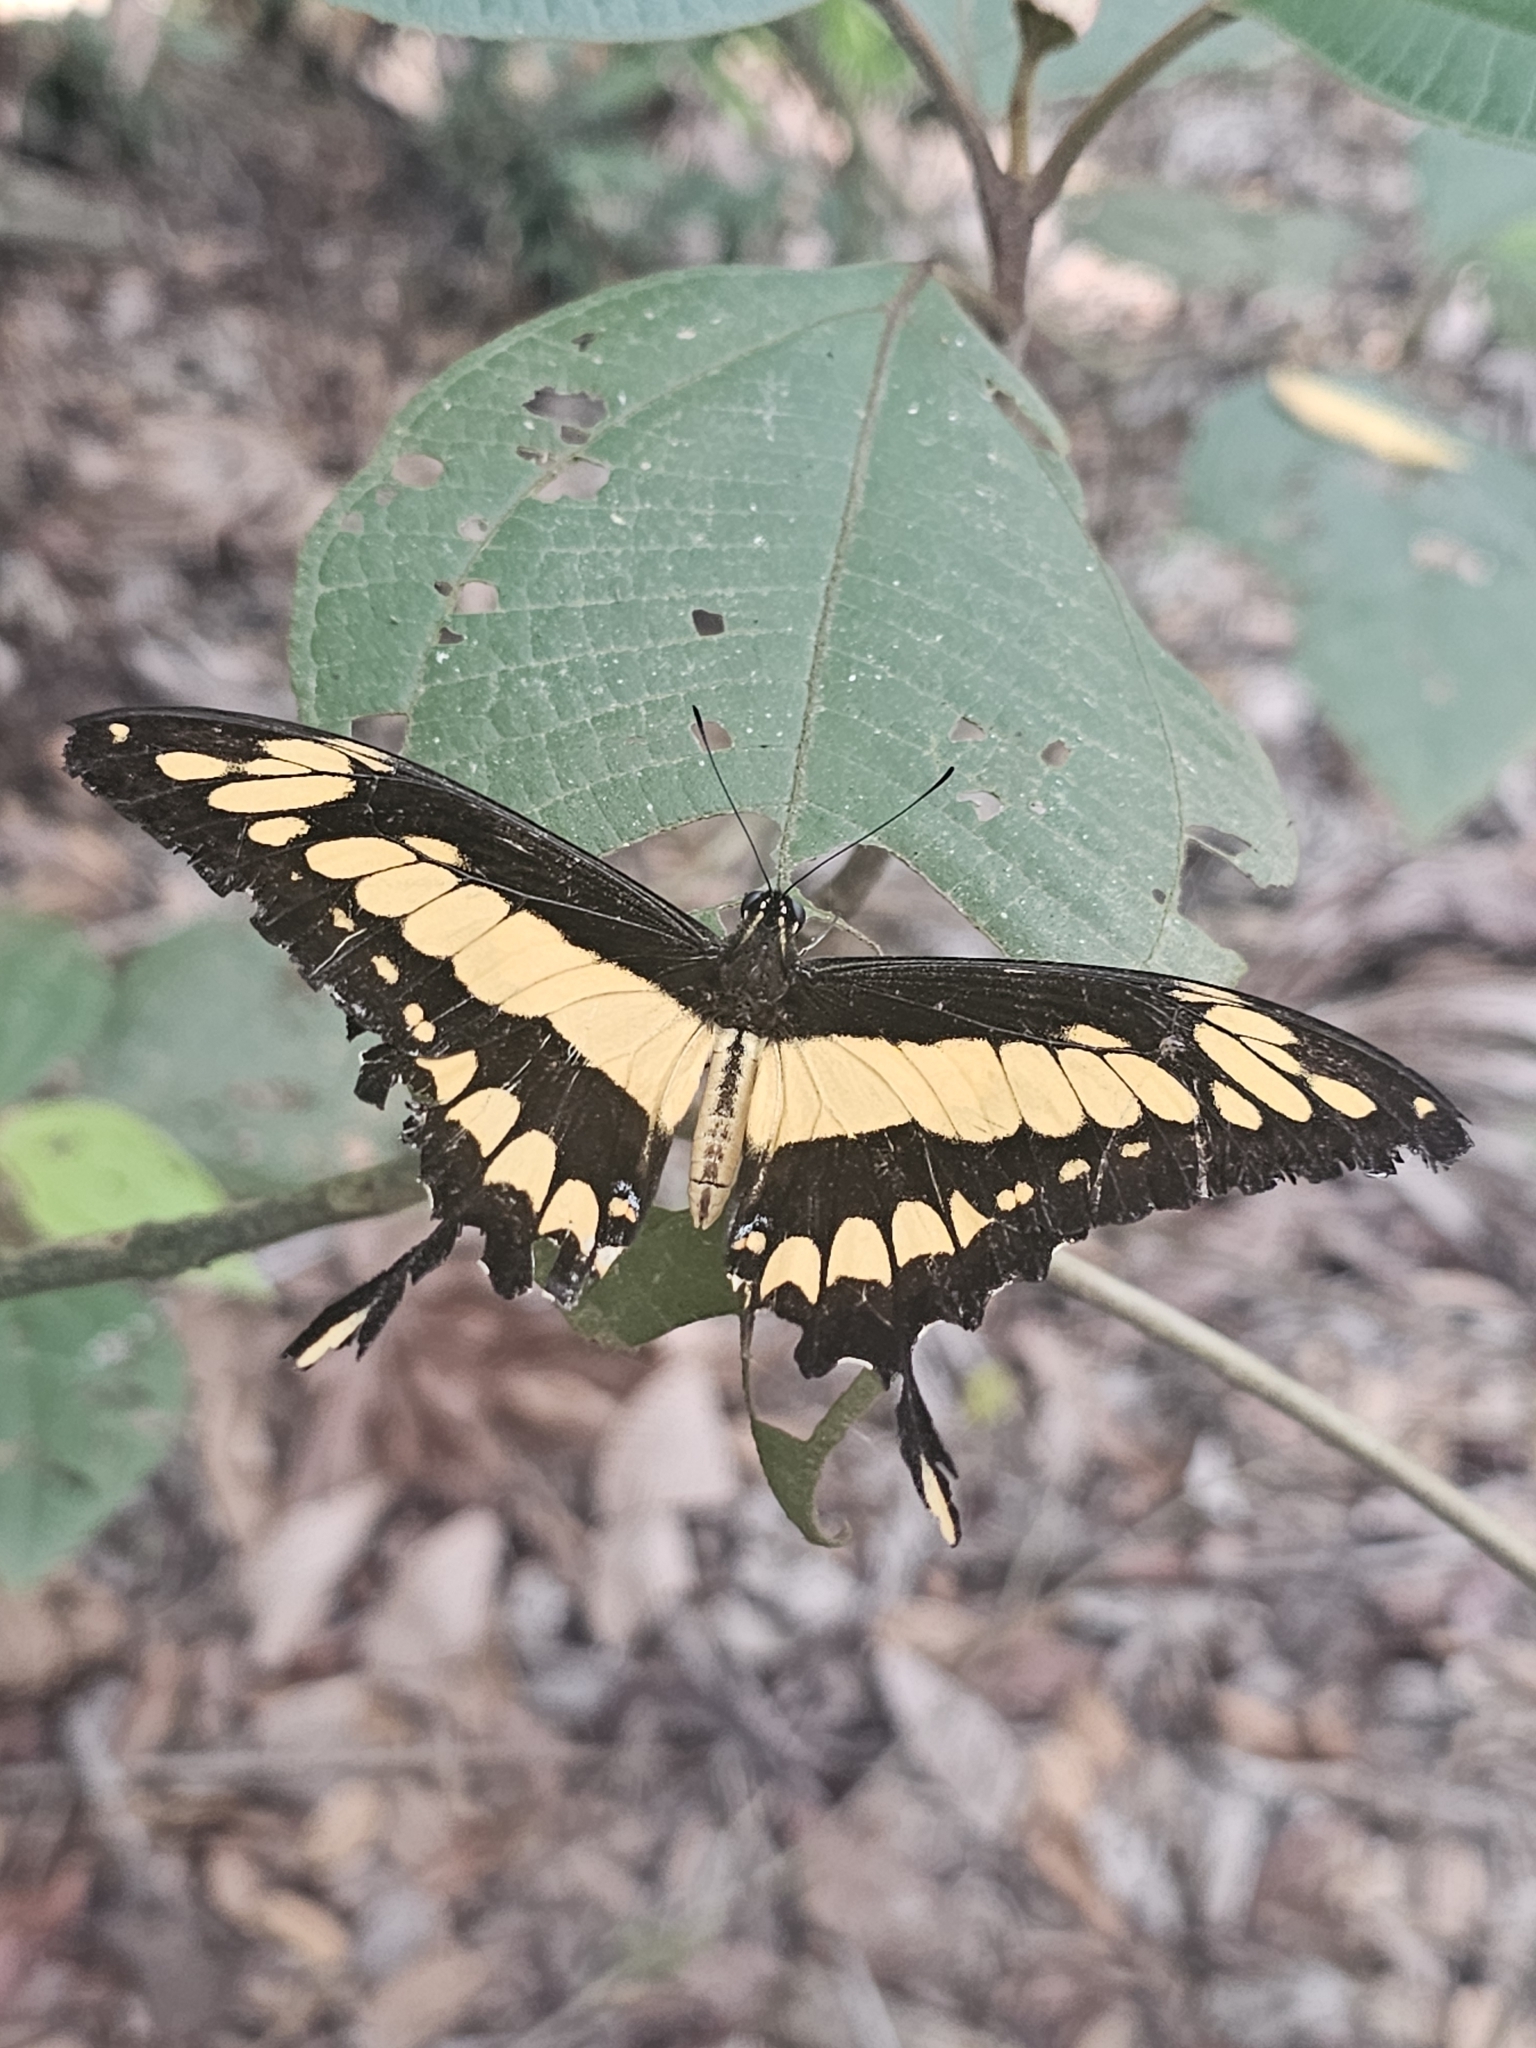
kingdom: Animalia
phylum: Arthropoda
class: Insecta
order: Lepidoptera
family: Papilionidae
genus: Papilio
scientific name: Papilio thoas
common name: King swallowtail
